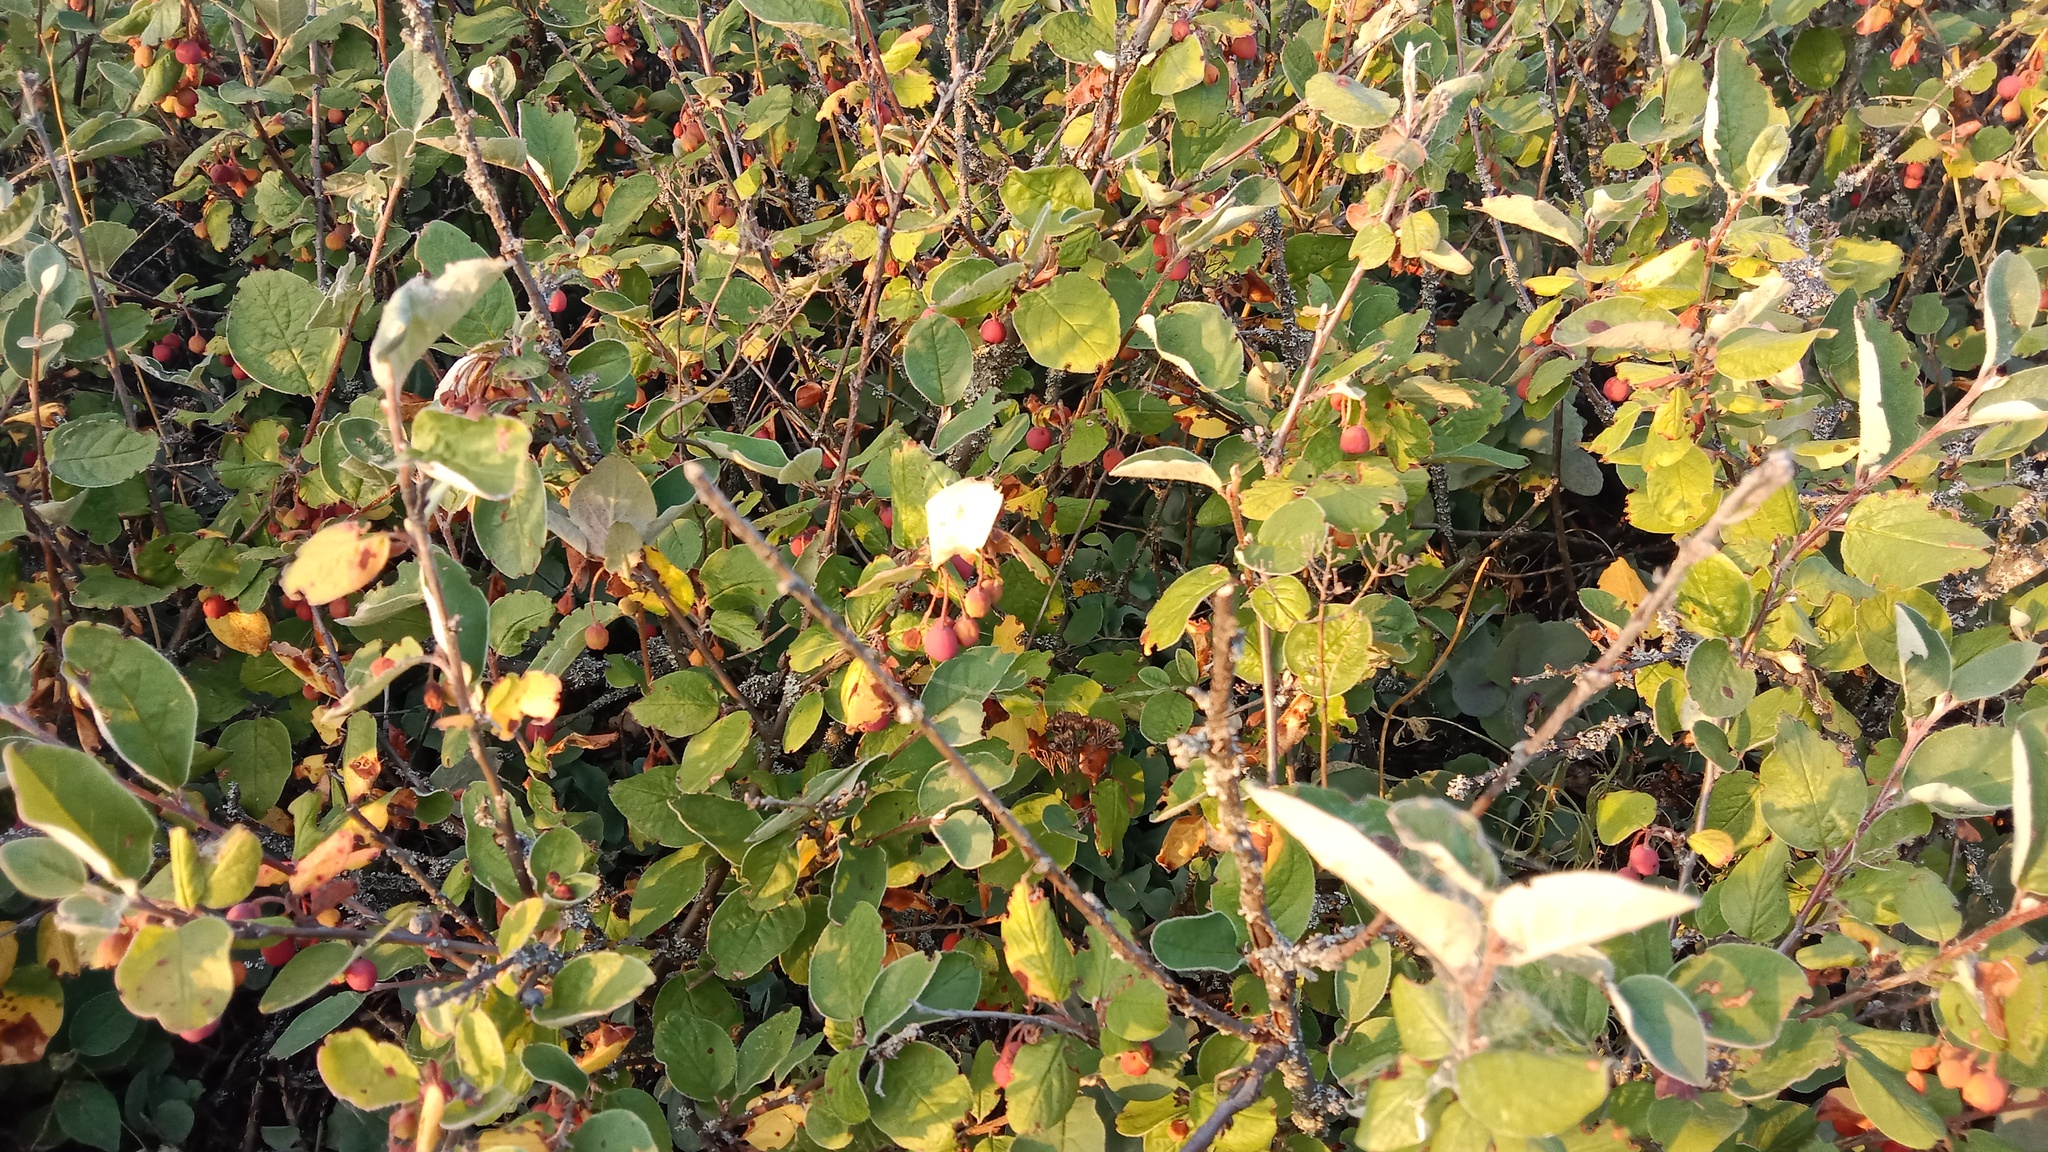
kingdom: Plantae
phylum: Tracheophyta
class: Magnoliopsida
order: Rosales
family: Rosaceae
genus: Cotoneaster
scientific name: Cotoneaster melanocarpus
